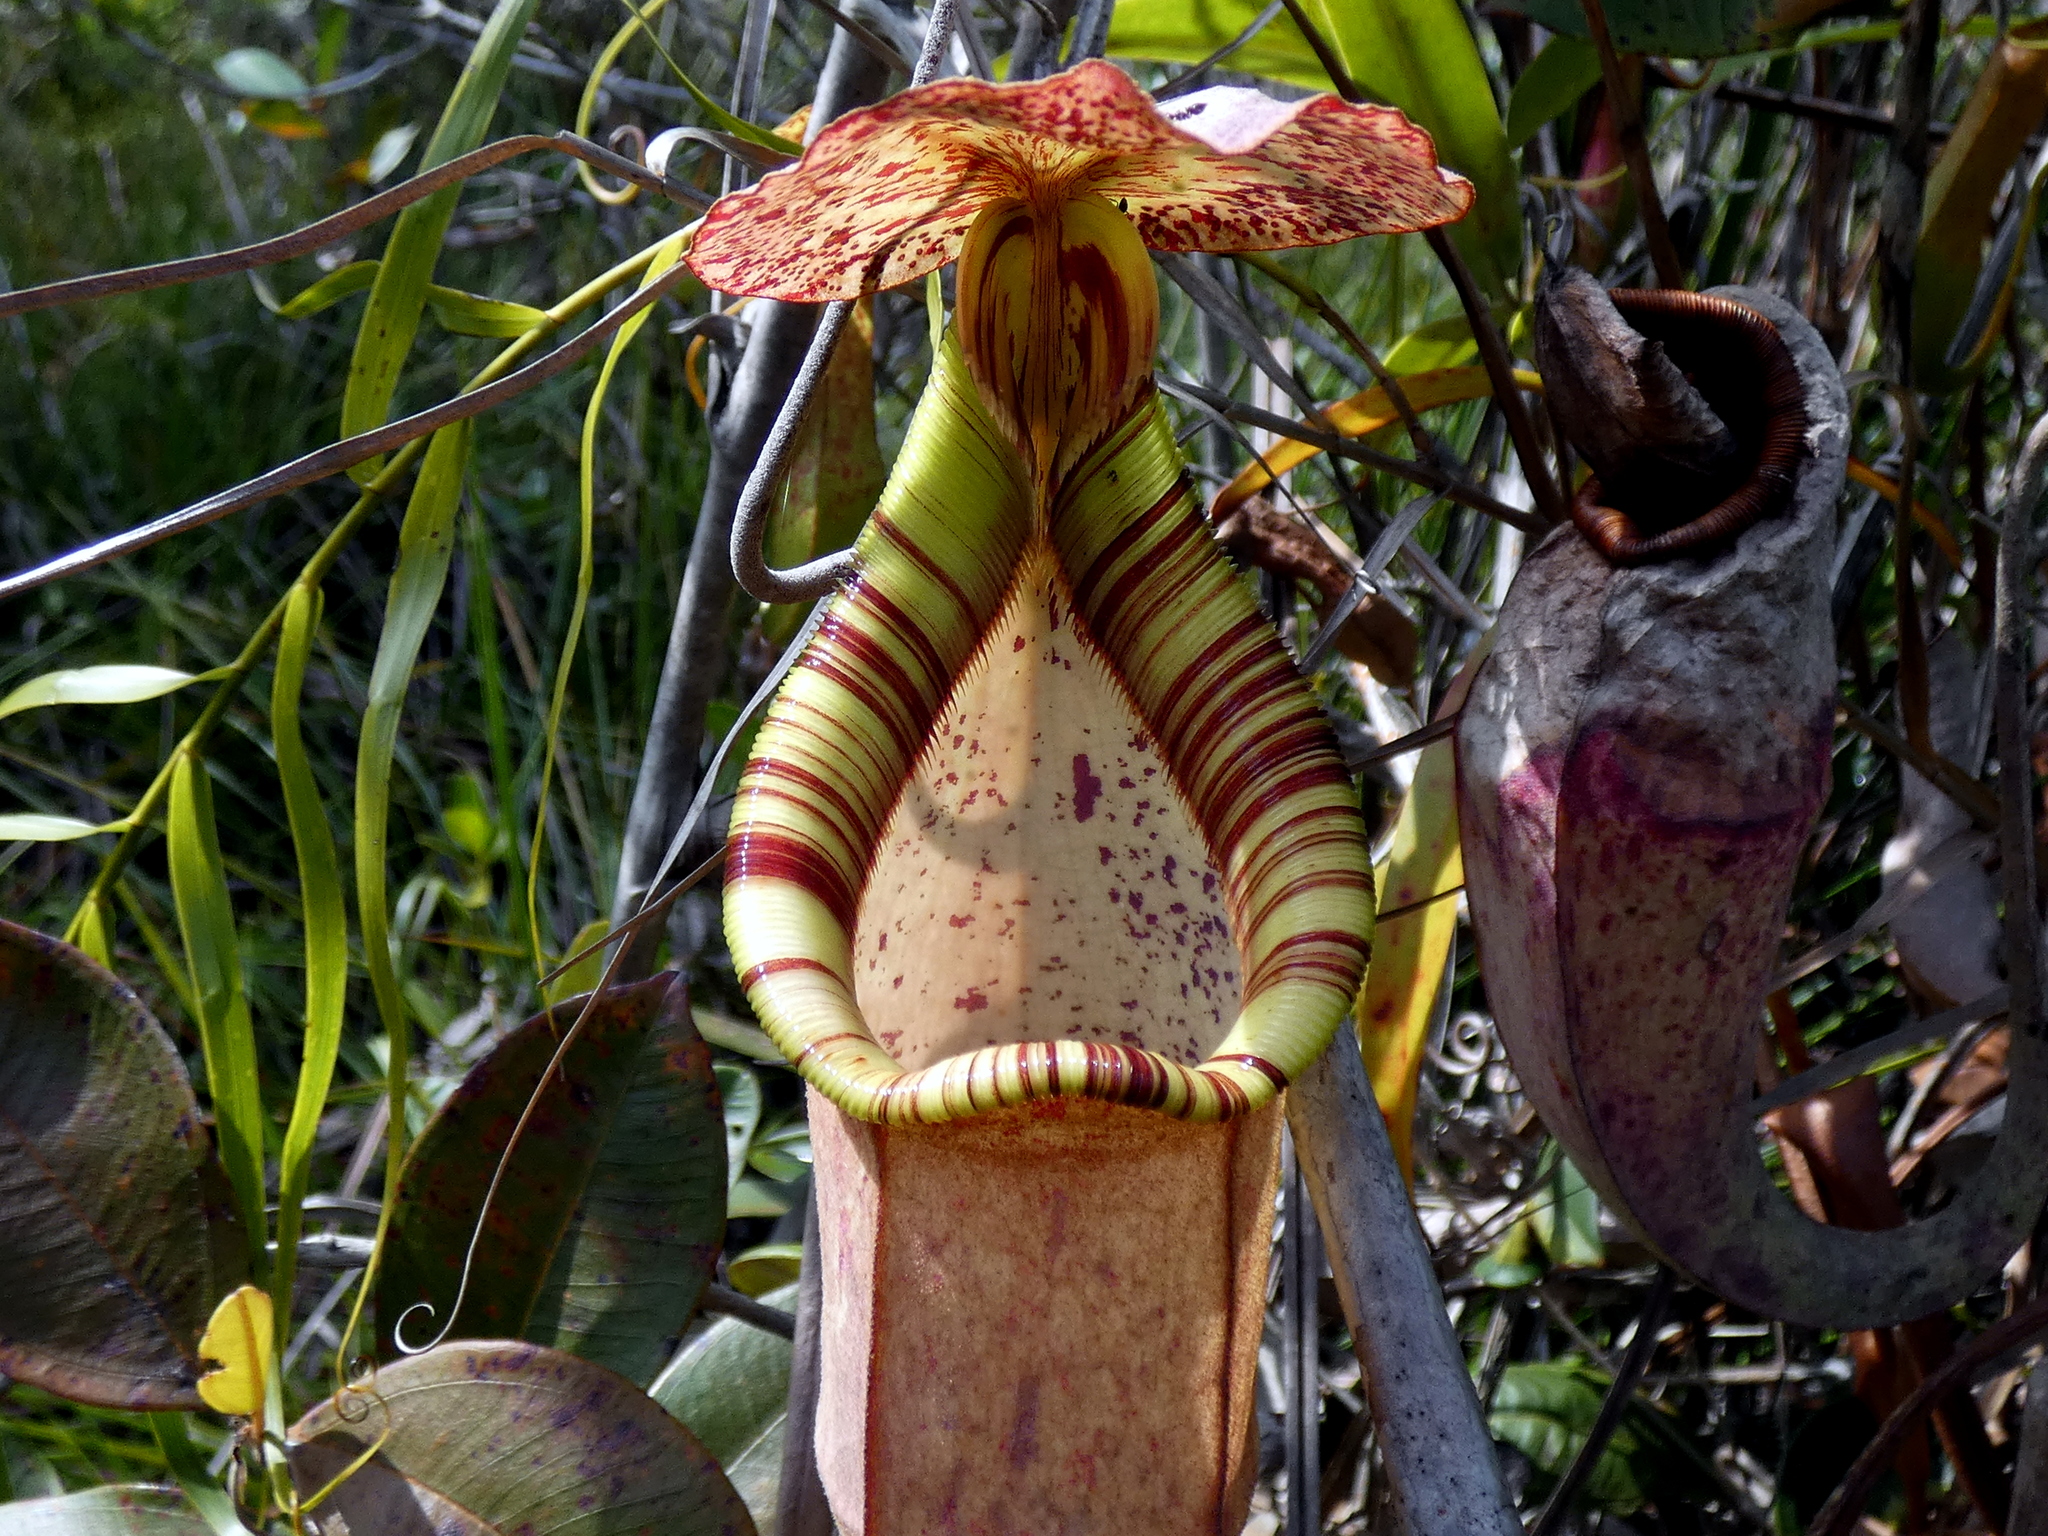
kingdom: Plantae
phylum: Tracheophyta
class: Magnoliopsida
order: Caryophyllales
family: Nepenthaceae
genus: Nepenthes
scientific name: Nepenthes rafflesiana
